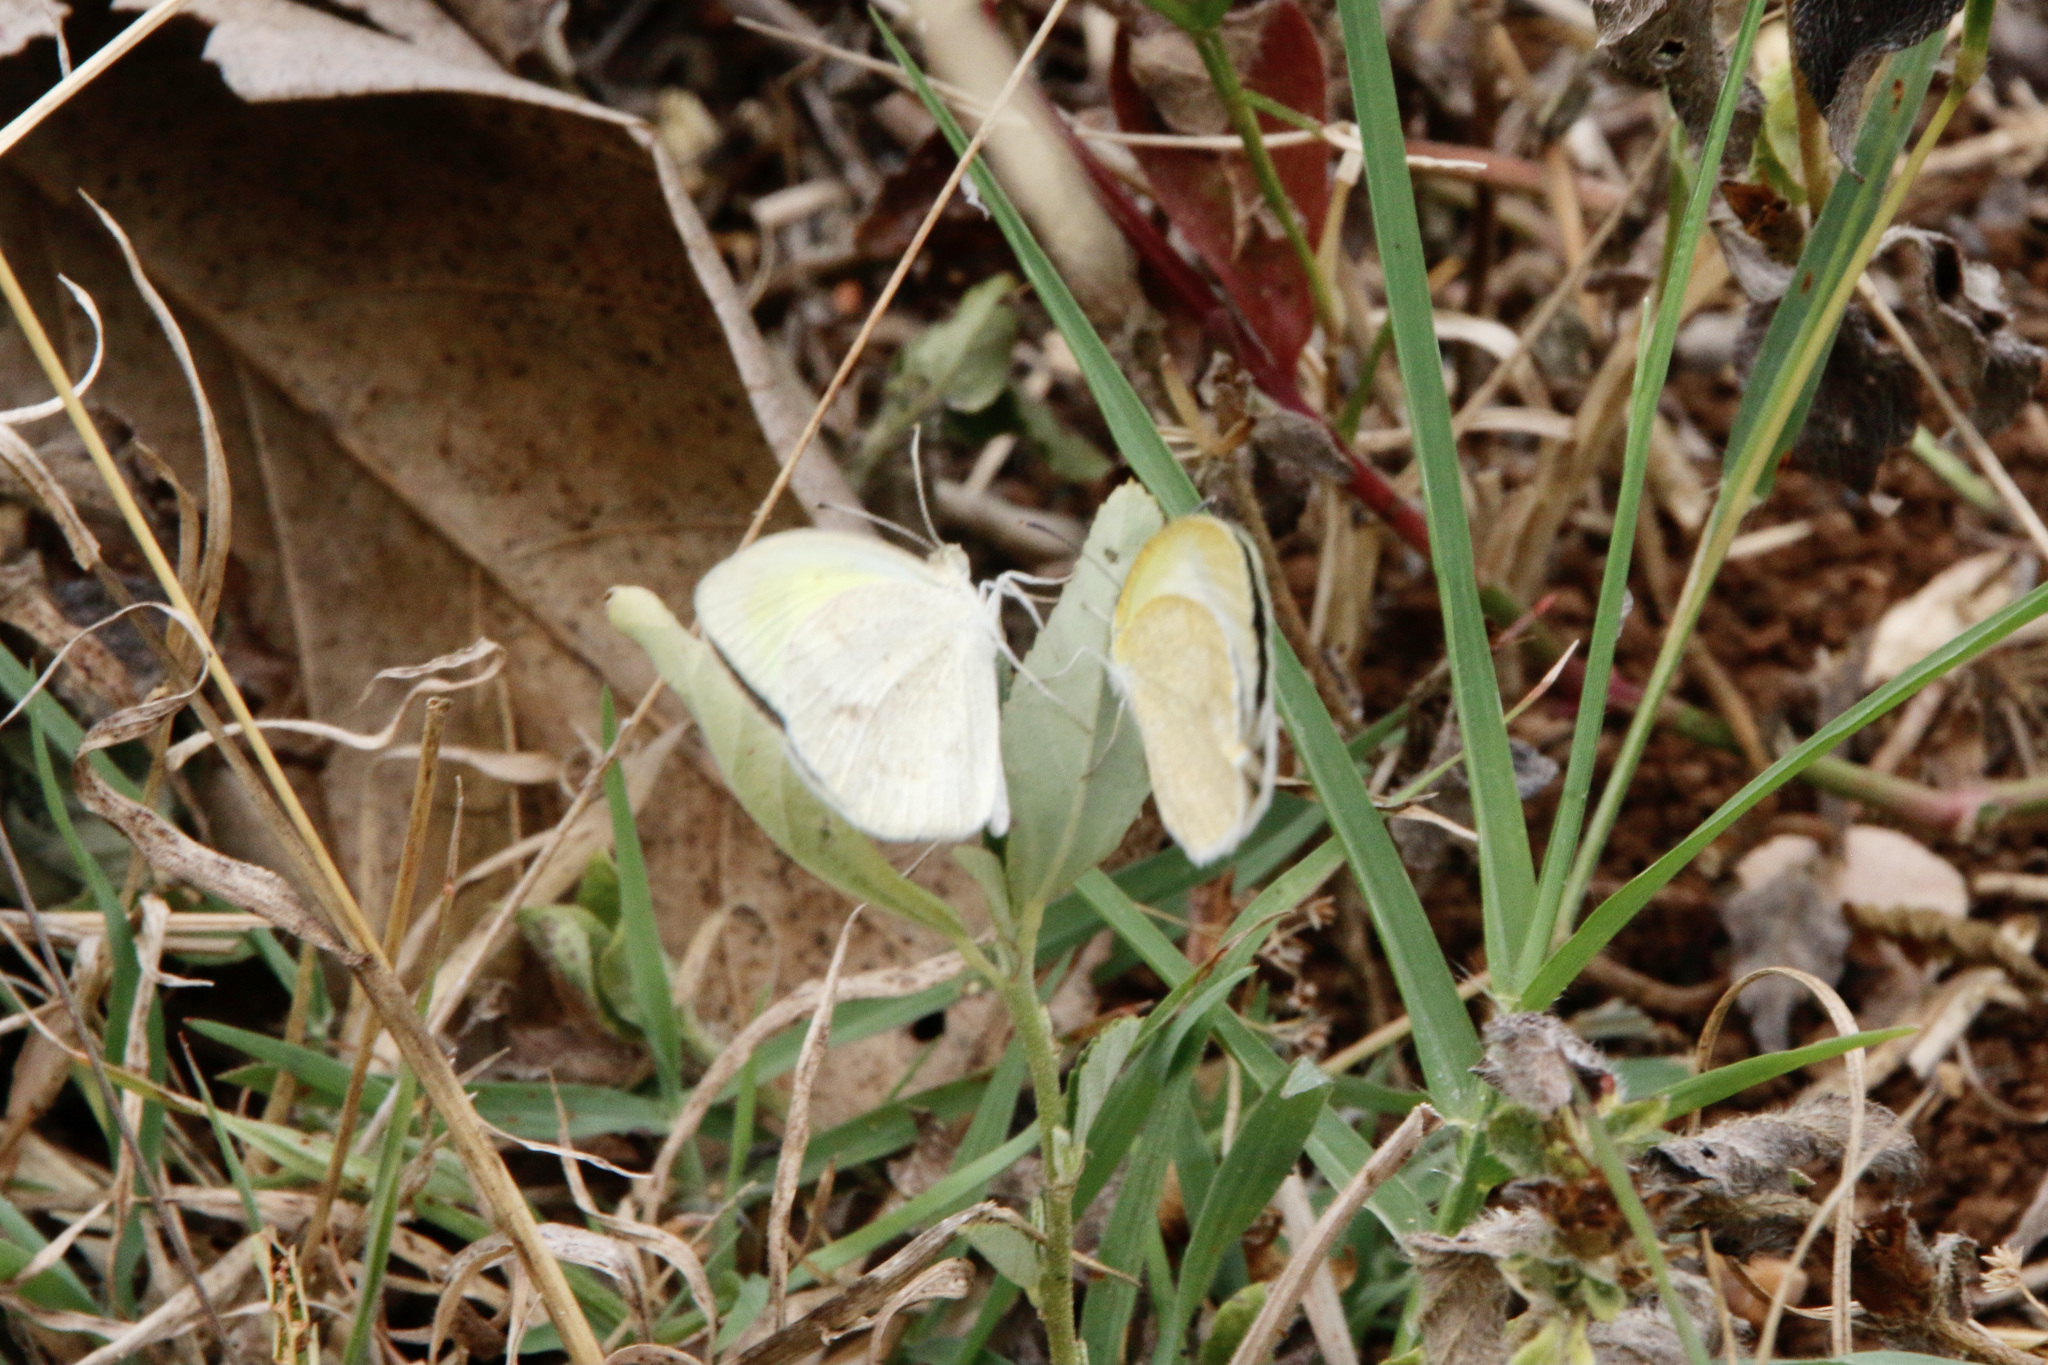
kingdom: Animalia
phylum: Arthropoda
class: Insecta
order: Lepidoptera
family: Pieridae
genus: Eurema
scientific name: Eurema daira
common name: Barred sulphur
